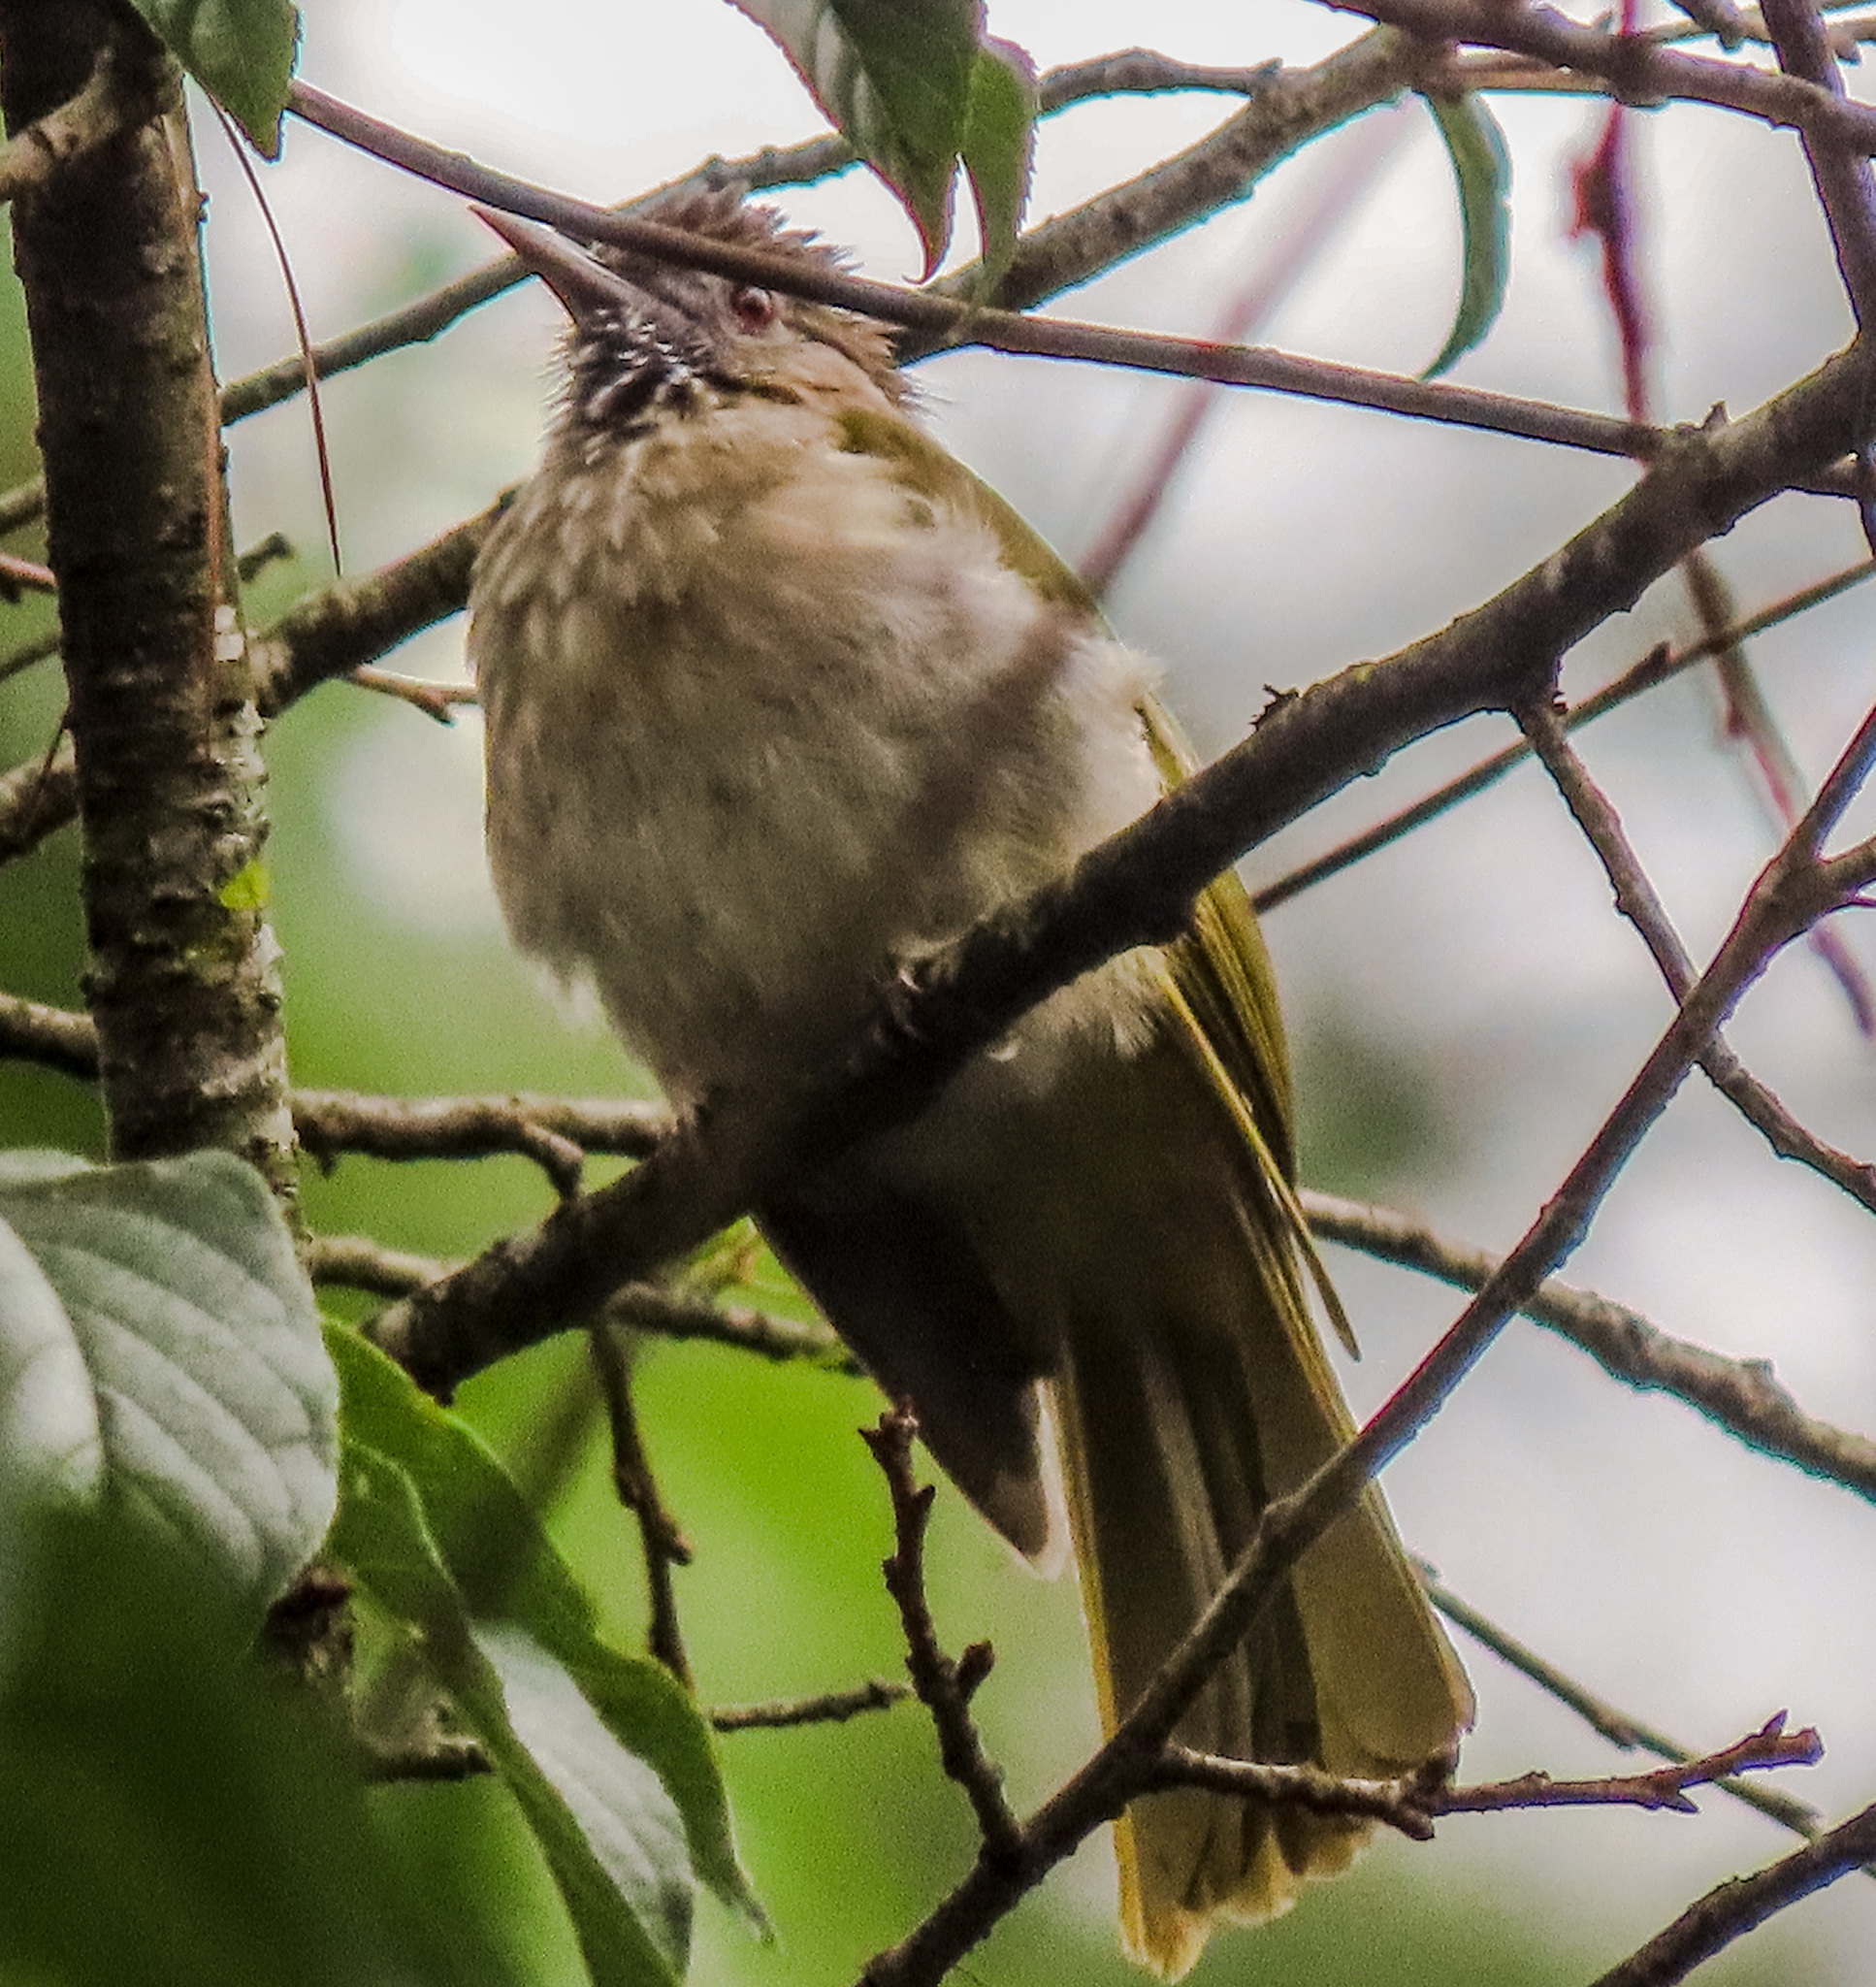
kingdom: Animalia
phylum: Chordata
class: Aves
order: Passeriformes
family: Pycnonotidae
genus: Ixos
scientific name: Ixos mcclellandii
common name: Mountain bulbul
